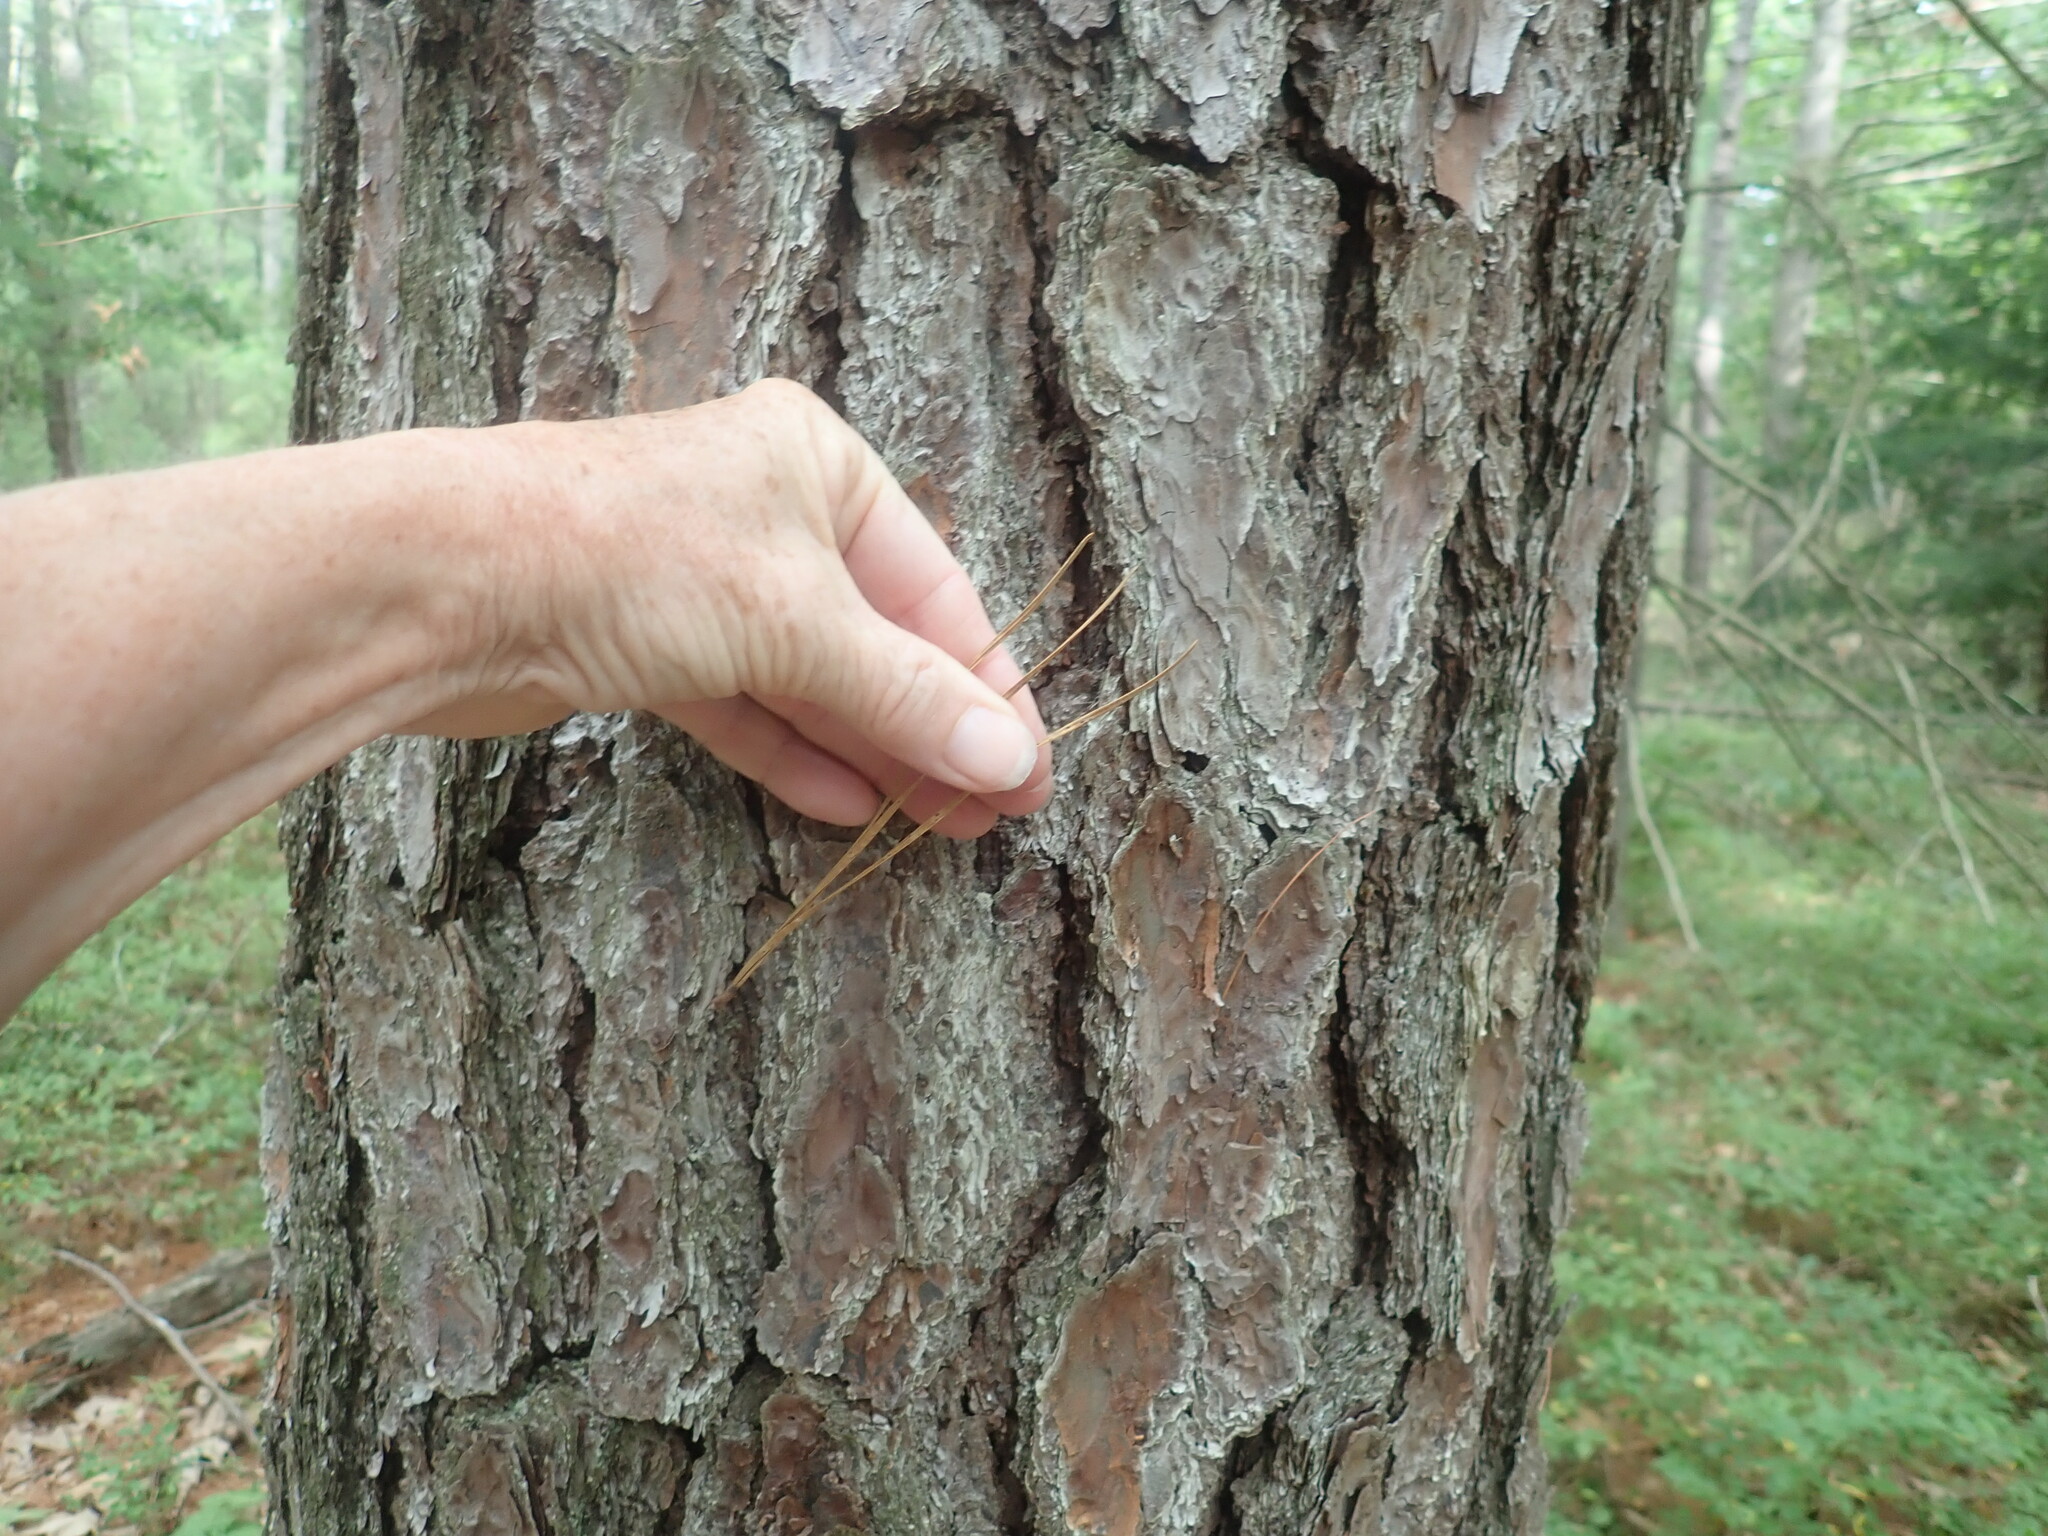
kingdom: Plantae
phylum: Tracheophyta
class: Pinopsida
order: Pinales
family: Pinaceae
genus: Pinus
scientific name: Pinus rigida
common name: Pitch pine
